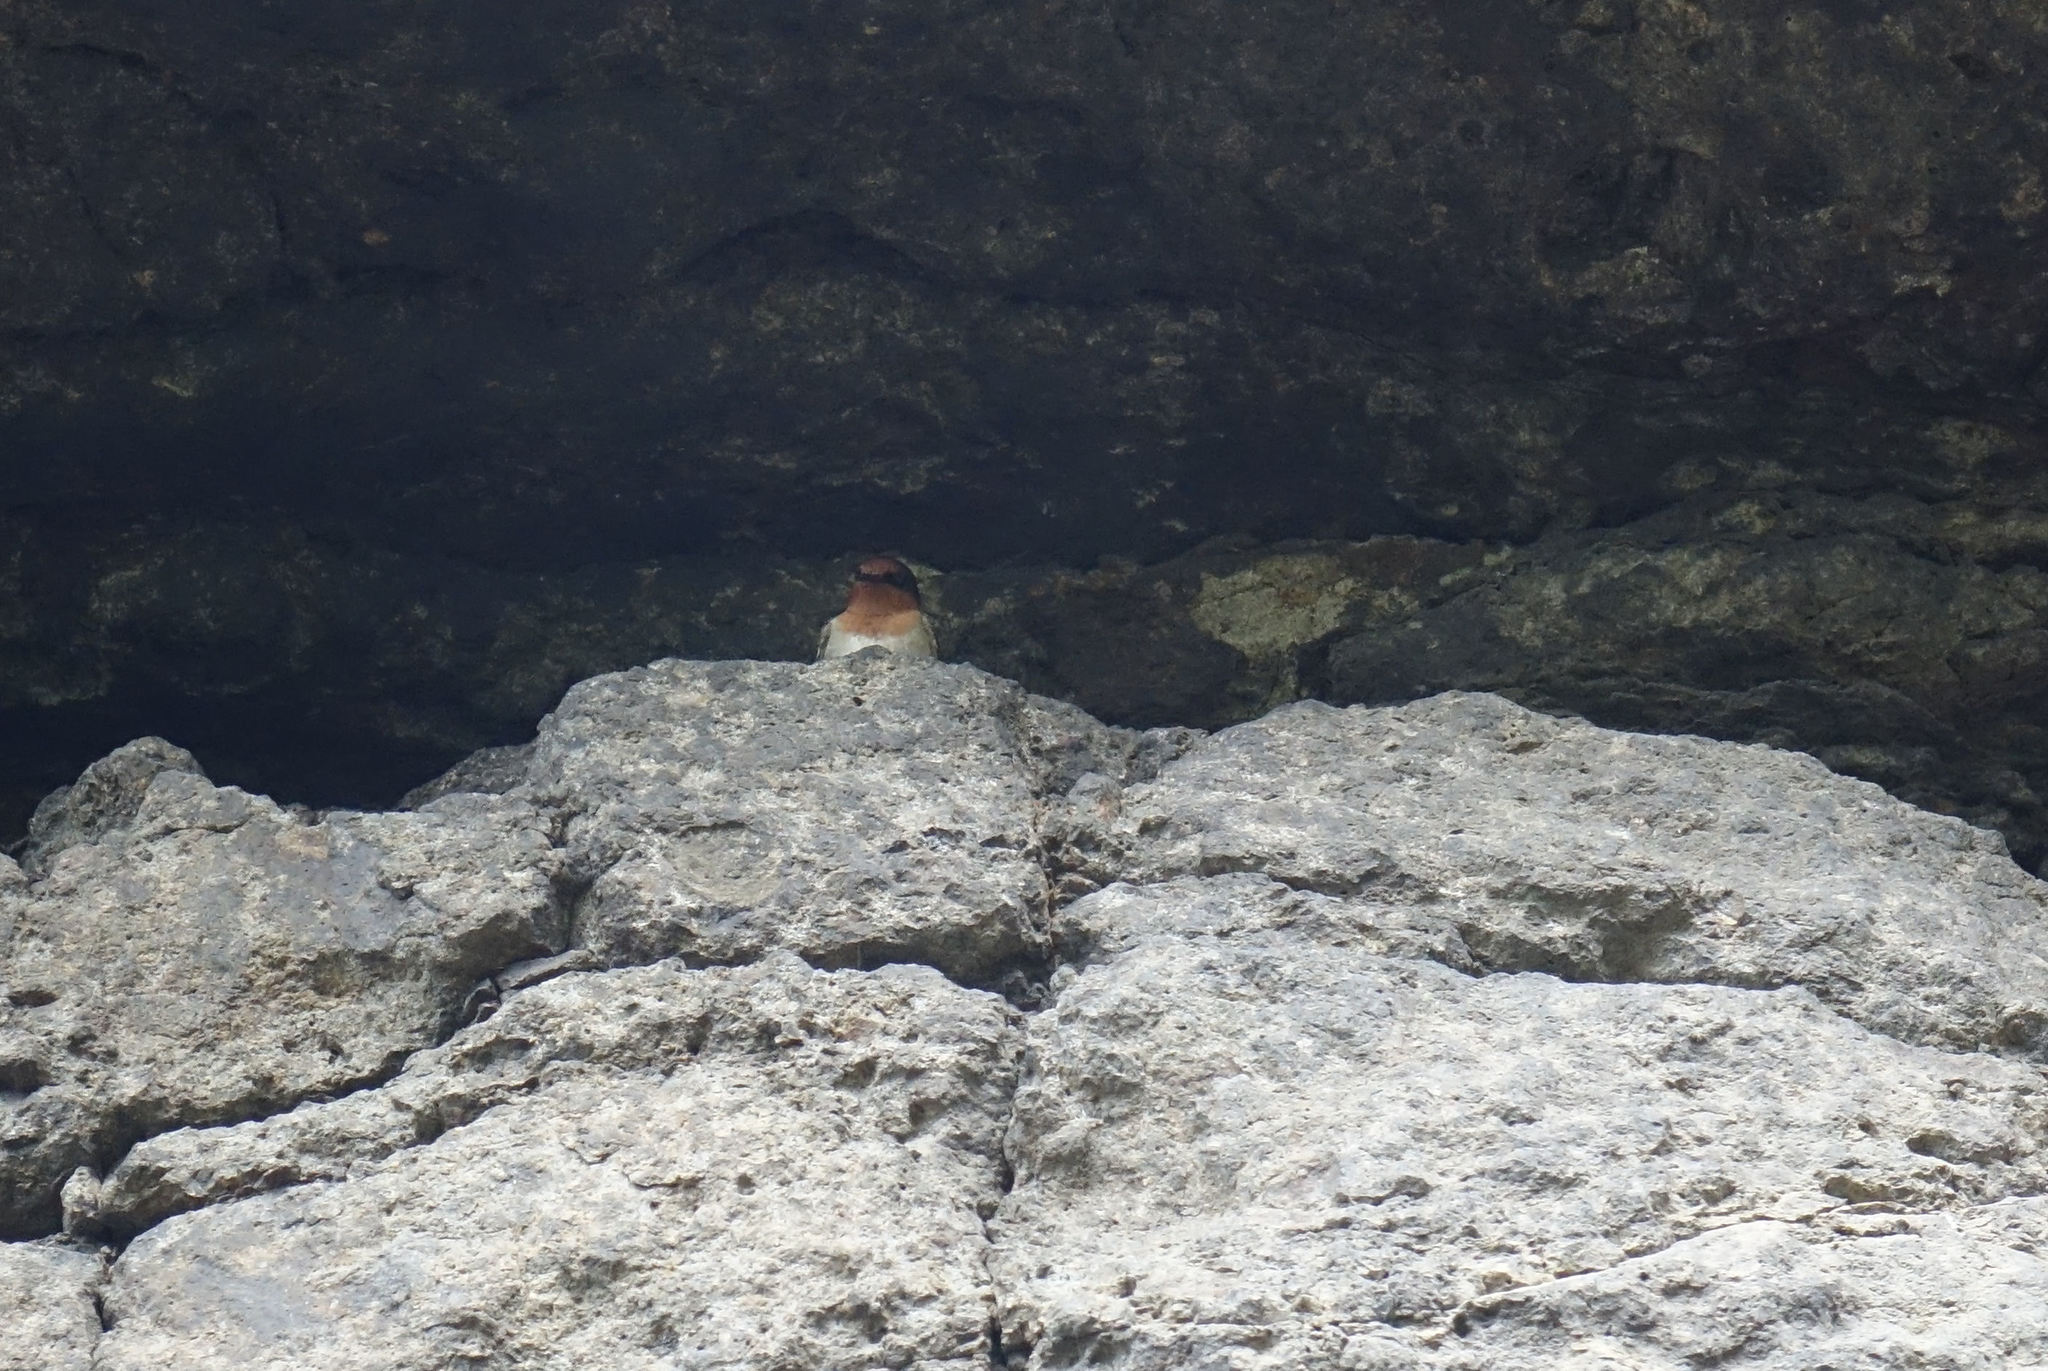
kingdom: Animalia
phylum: Chordata
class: Aves
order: Passeriformes
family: Hirundinidae
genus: Hirundo
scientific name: Hirundo neoxena
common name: Welcome swallow
